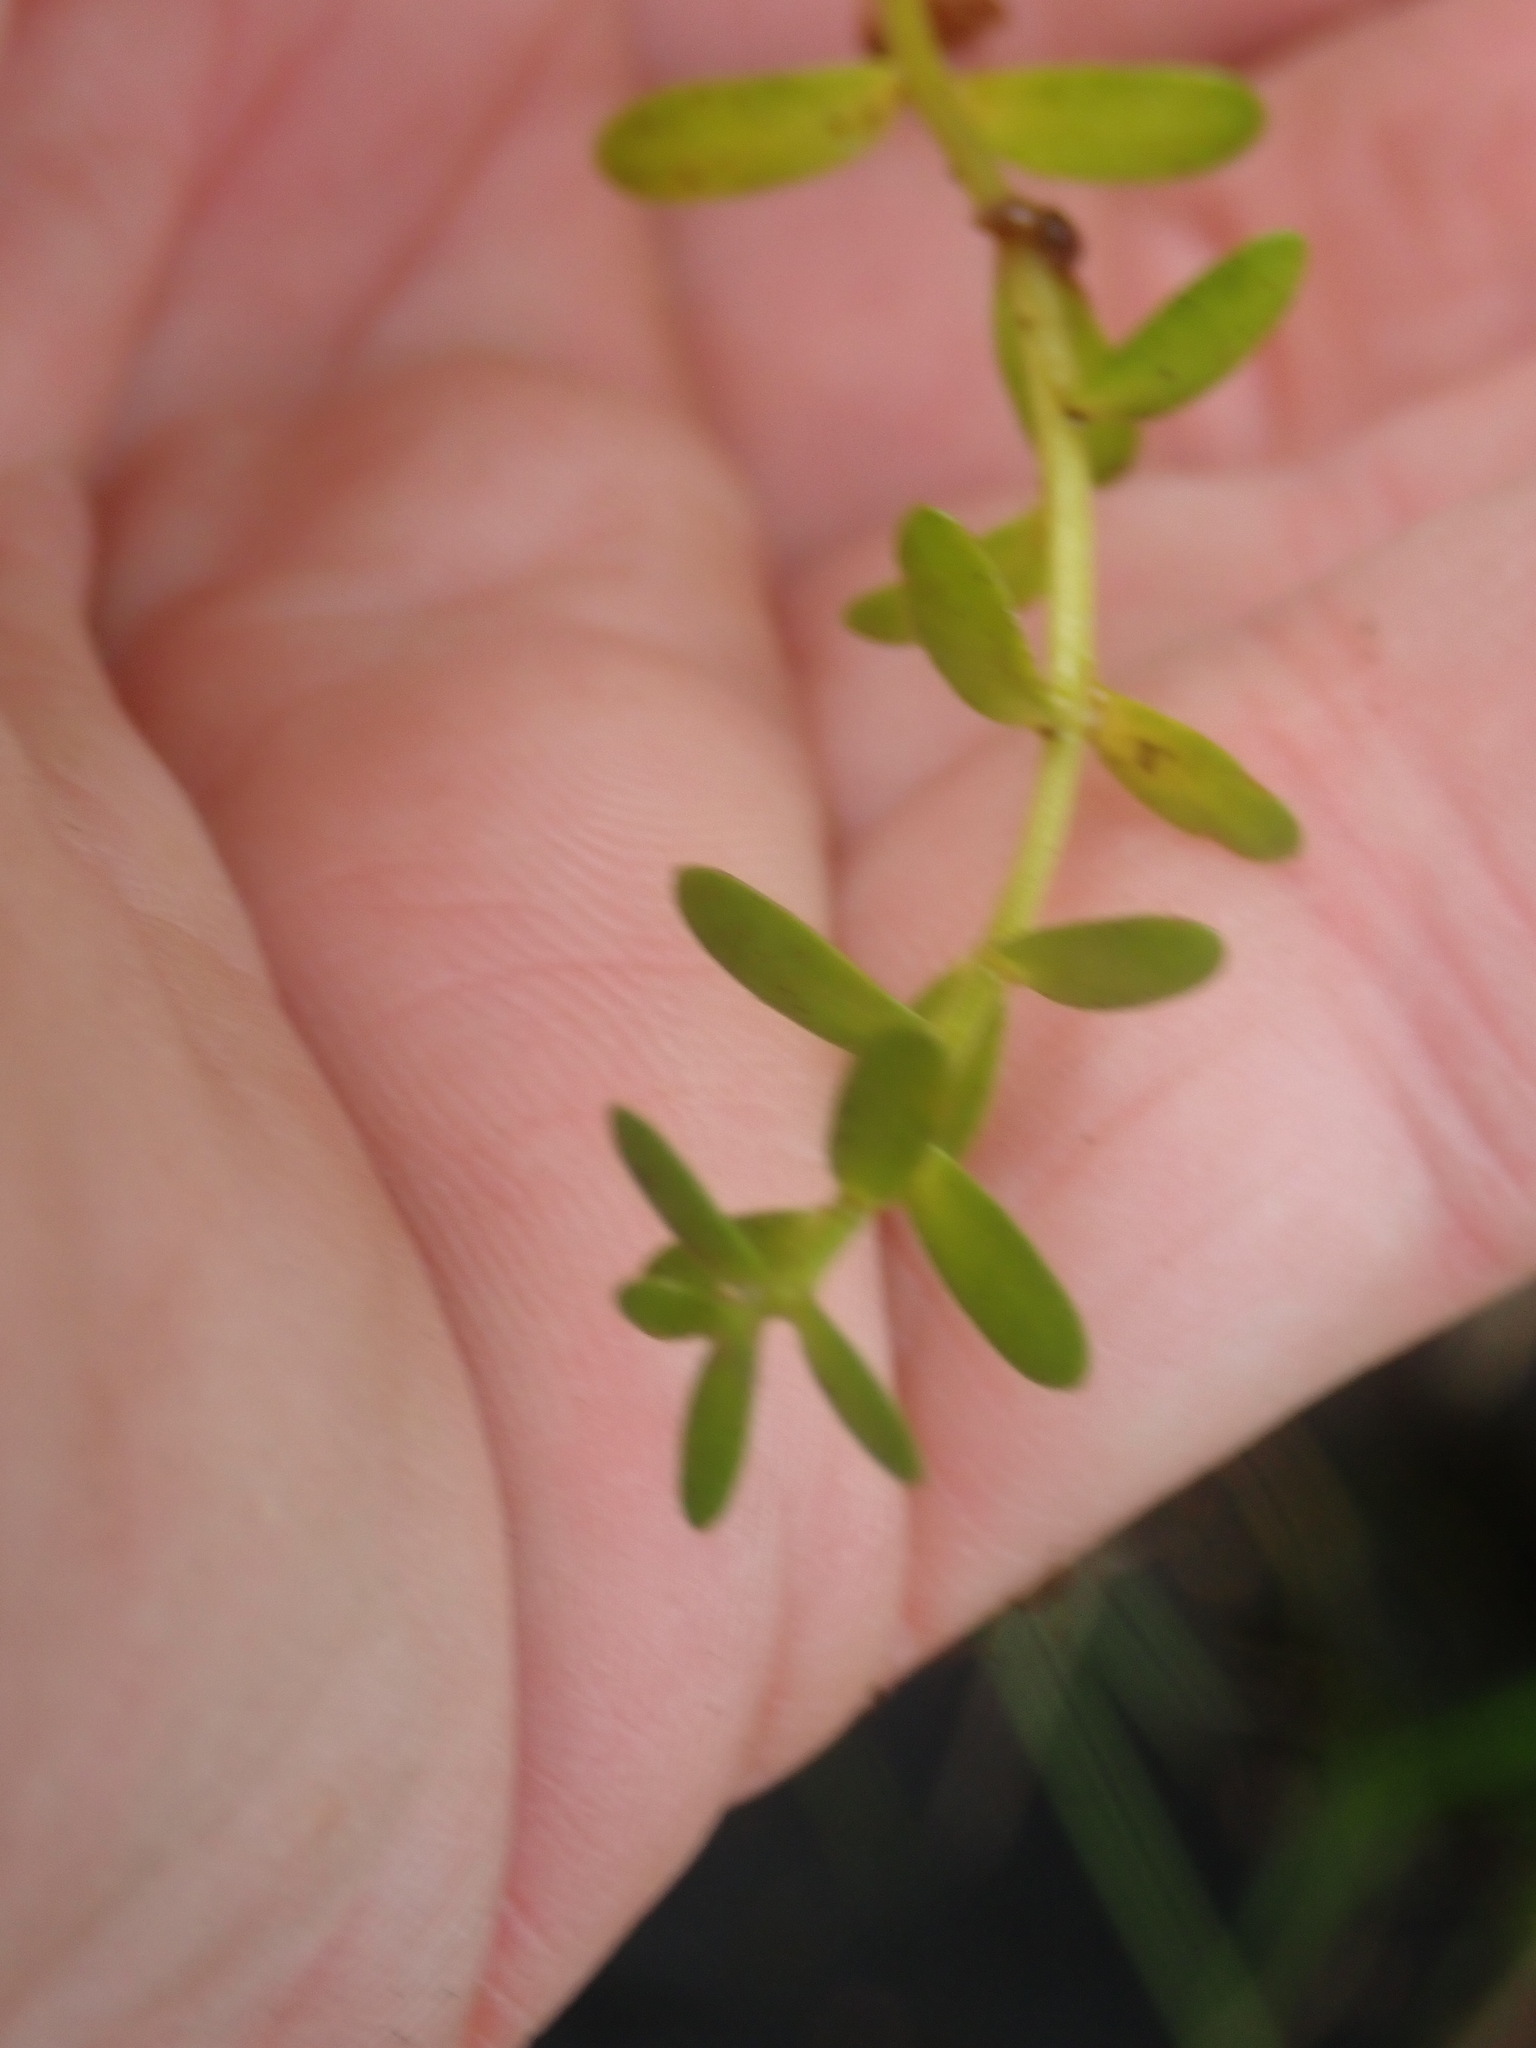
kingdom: Plantae
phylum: Tracheophyta
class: Magnoliopsida
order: Ericales
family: Primulaceae
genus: Lysimachia
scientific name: Lysimachia maritima
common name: Sea milkwort
